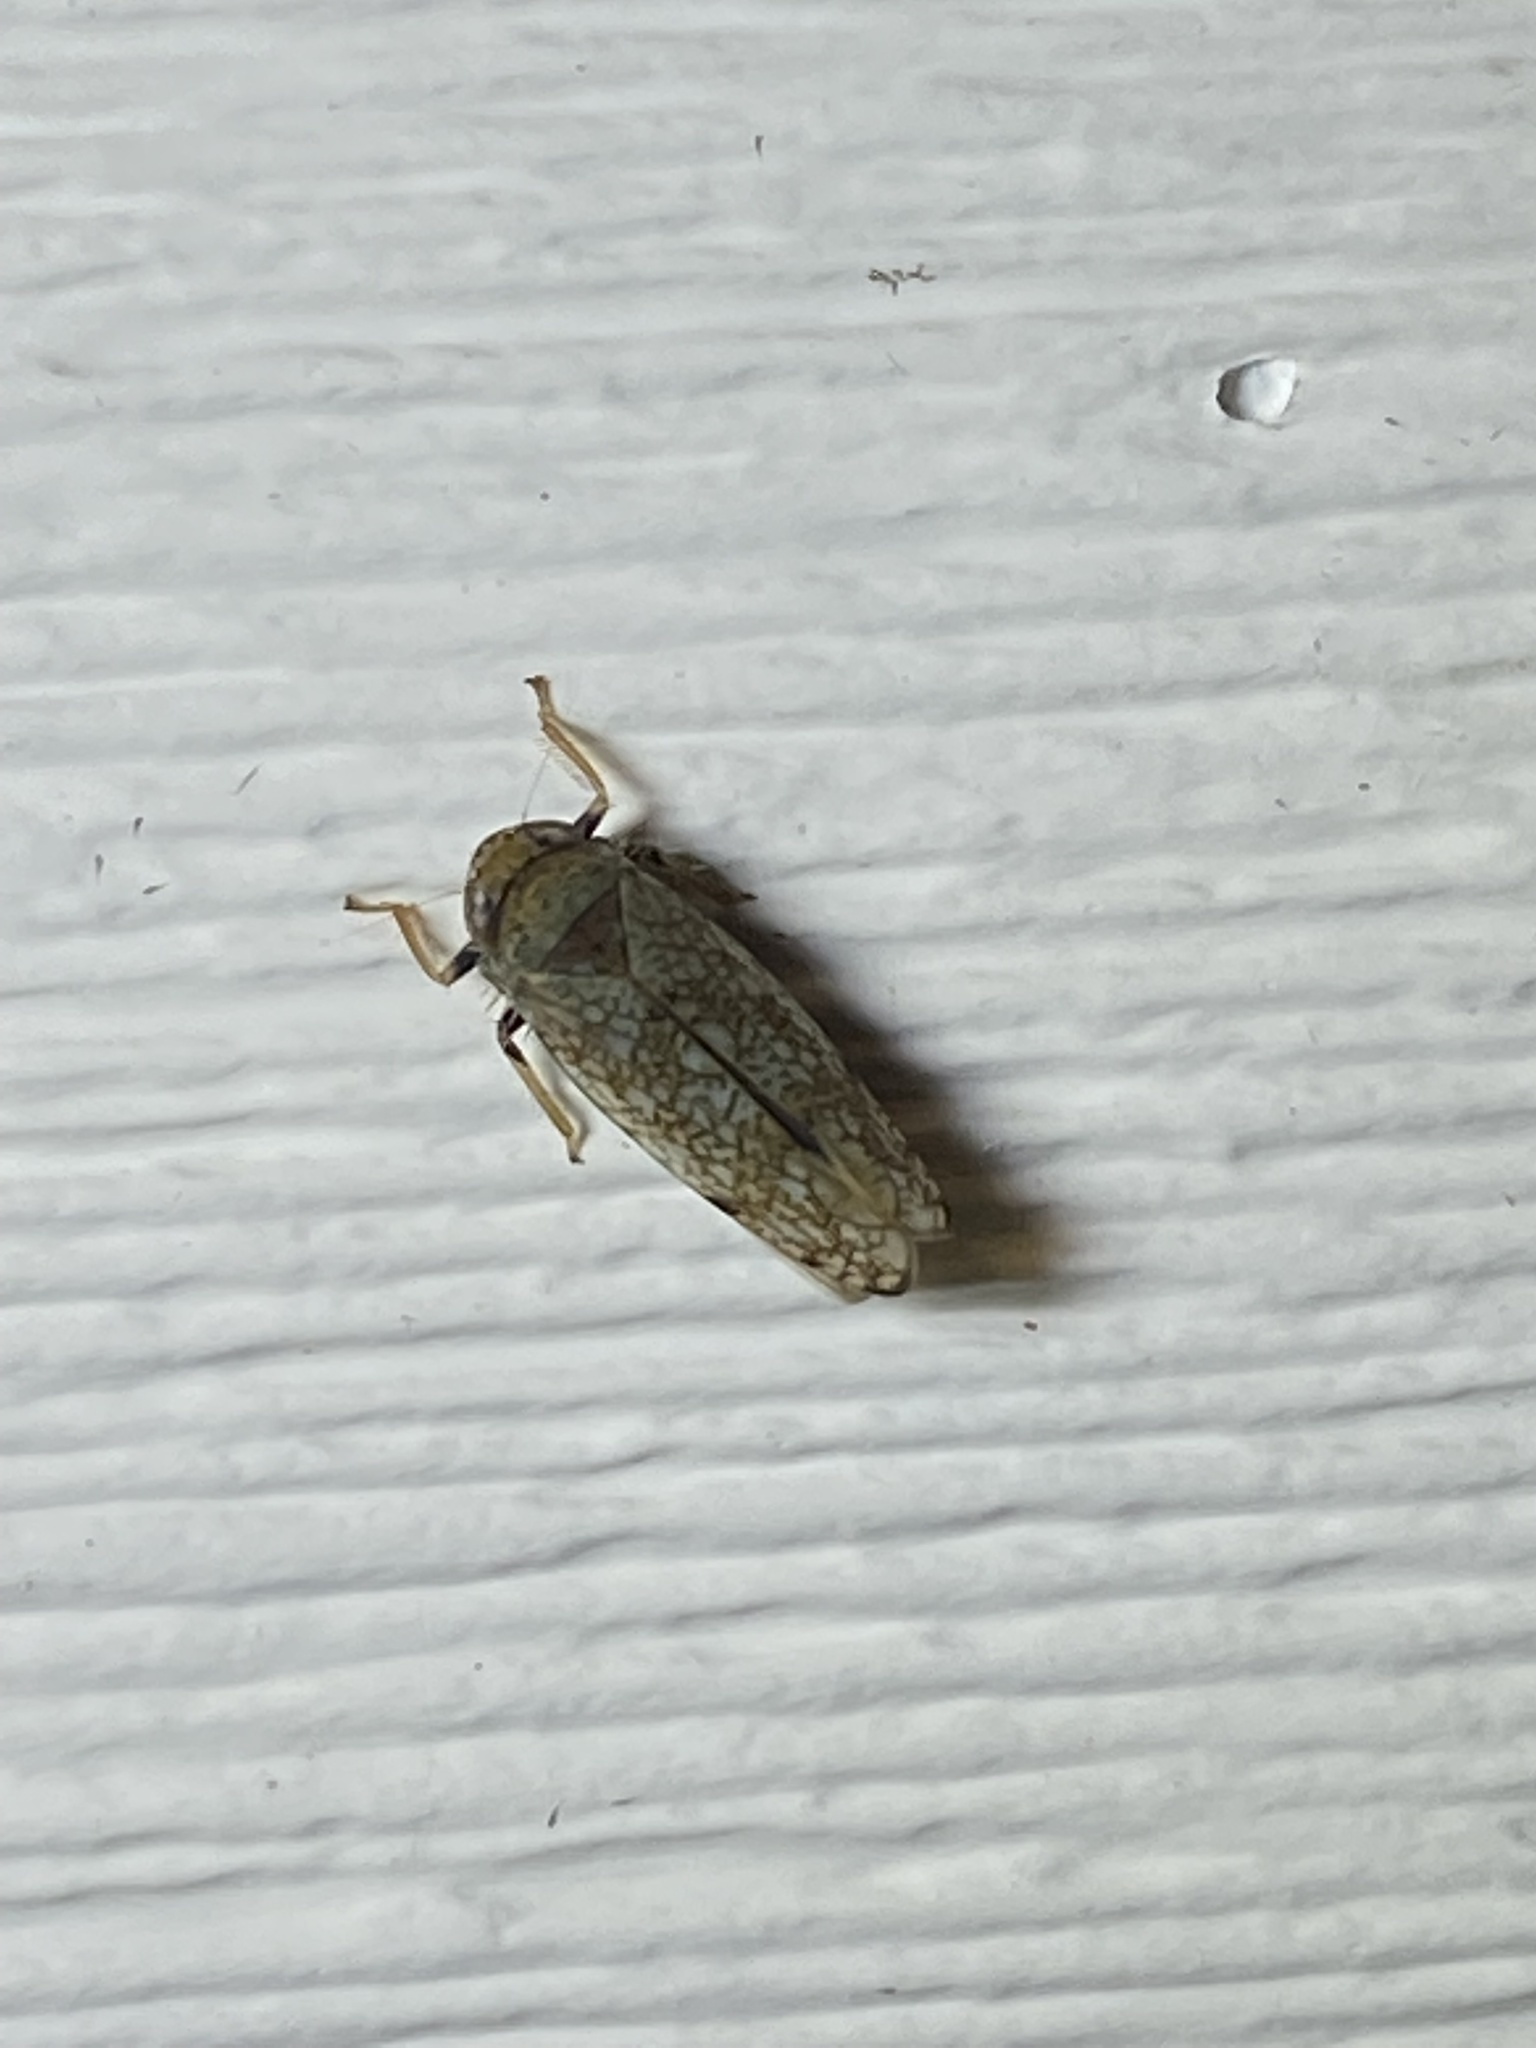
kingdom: Animalia
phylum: Arthropoda
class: Insecta
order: Hemiptera
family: Cicadellidae
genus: Orientus
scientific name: Orientus ishidae
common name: Japanese leafhopper
